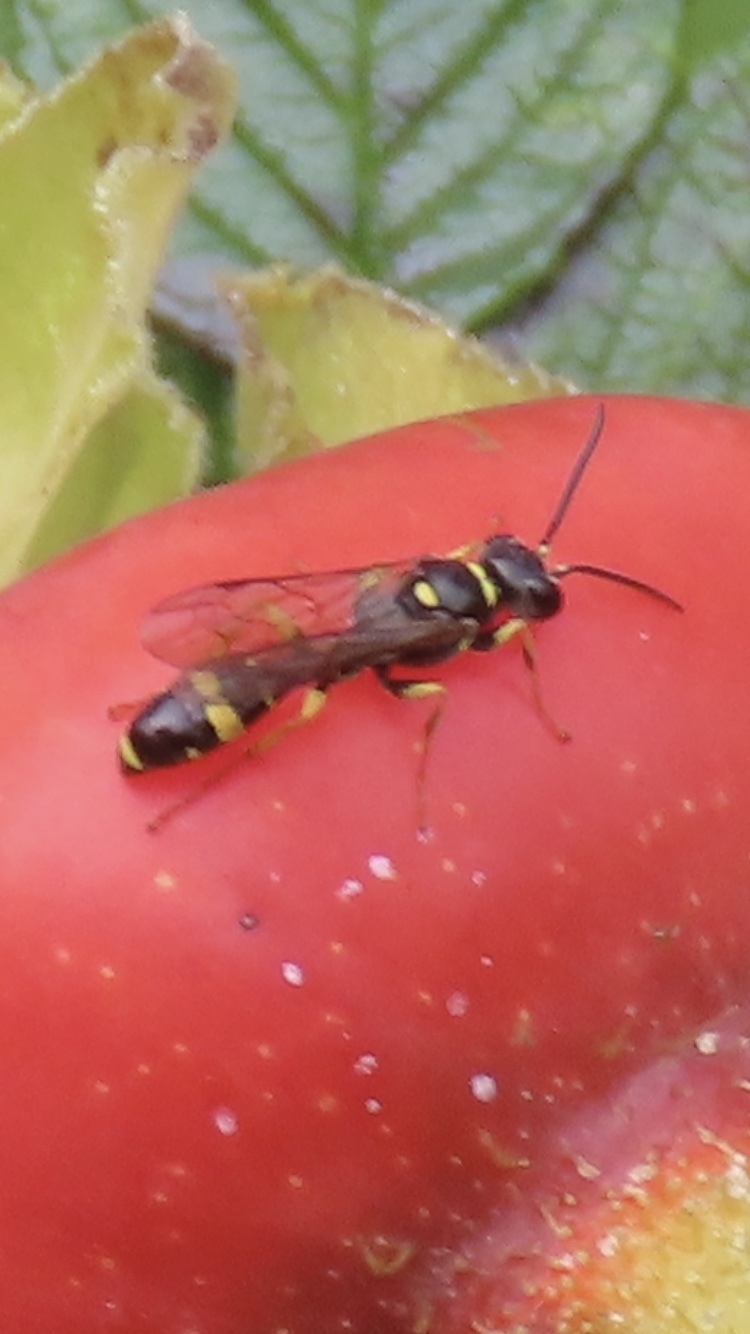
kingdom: Animalia
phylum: Arthropoda
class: Insecta
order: Hymenoptera
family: Crabronidae
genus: Mellinus
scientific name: Mellinus arvensis
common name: Field digger wasp
